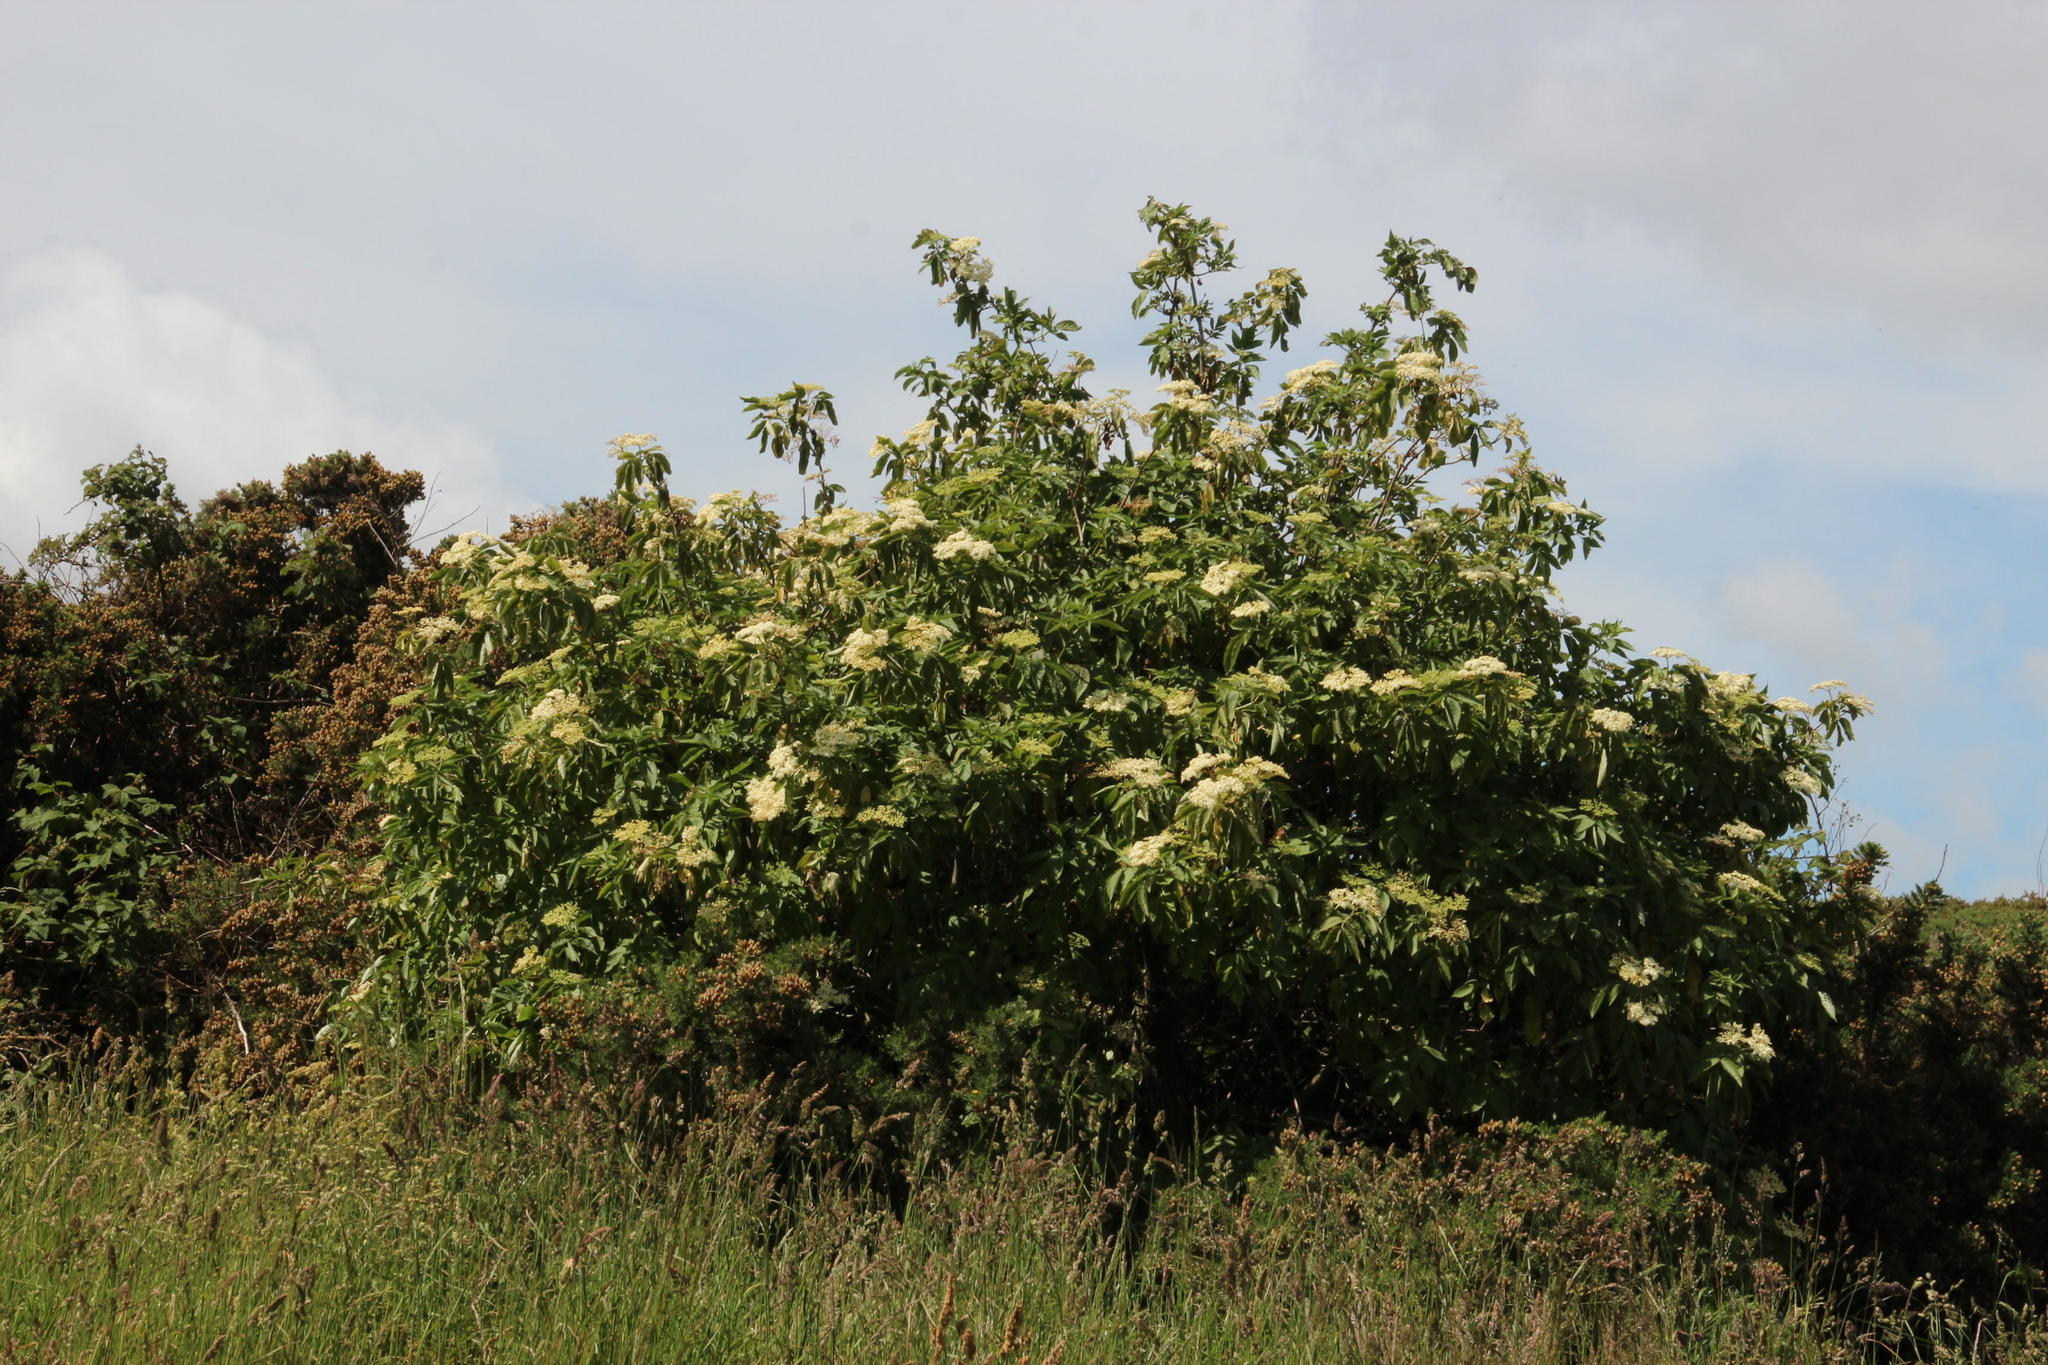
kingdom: Plantae
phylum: Tracheophyta
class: Magnoliopsida
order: Dipsacales
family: Viburnaceae
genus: Sambucus
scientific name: Sambucus nigra
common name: Elder
